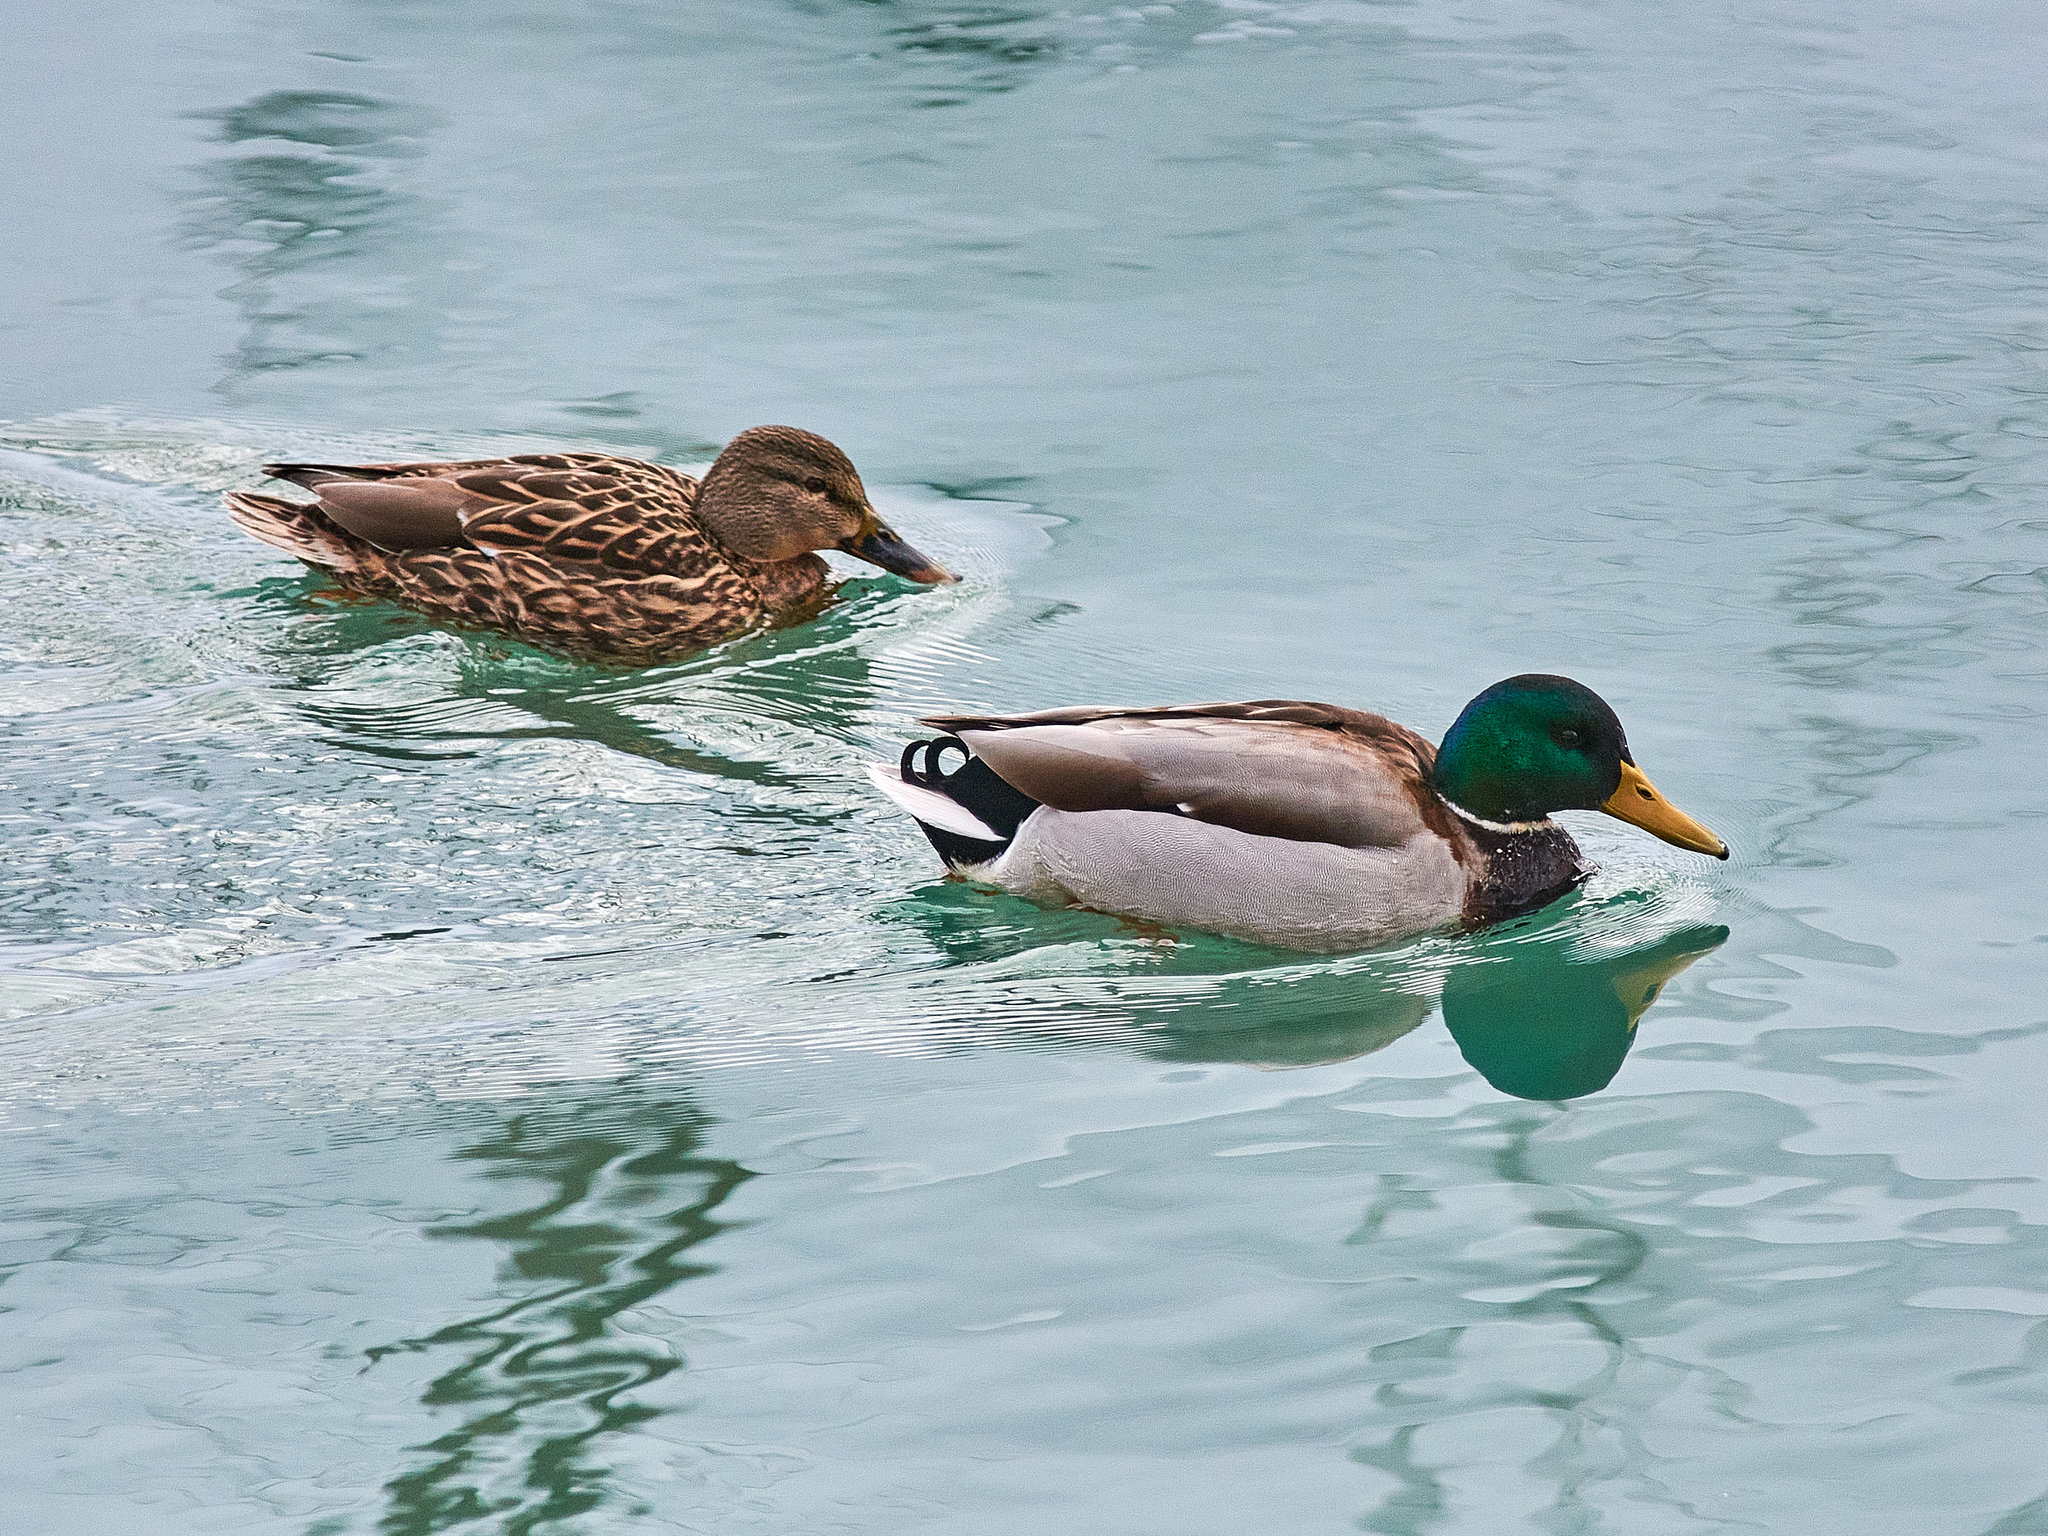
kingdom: Animalia
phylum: Chordata
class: Aves
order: Anseriformes
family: Anatidae
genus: Anas
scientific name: Anas platyrhynchos
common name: Mallard
